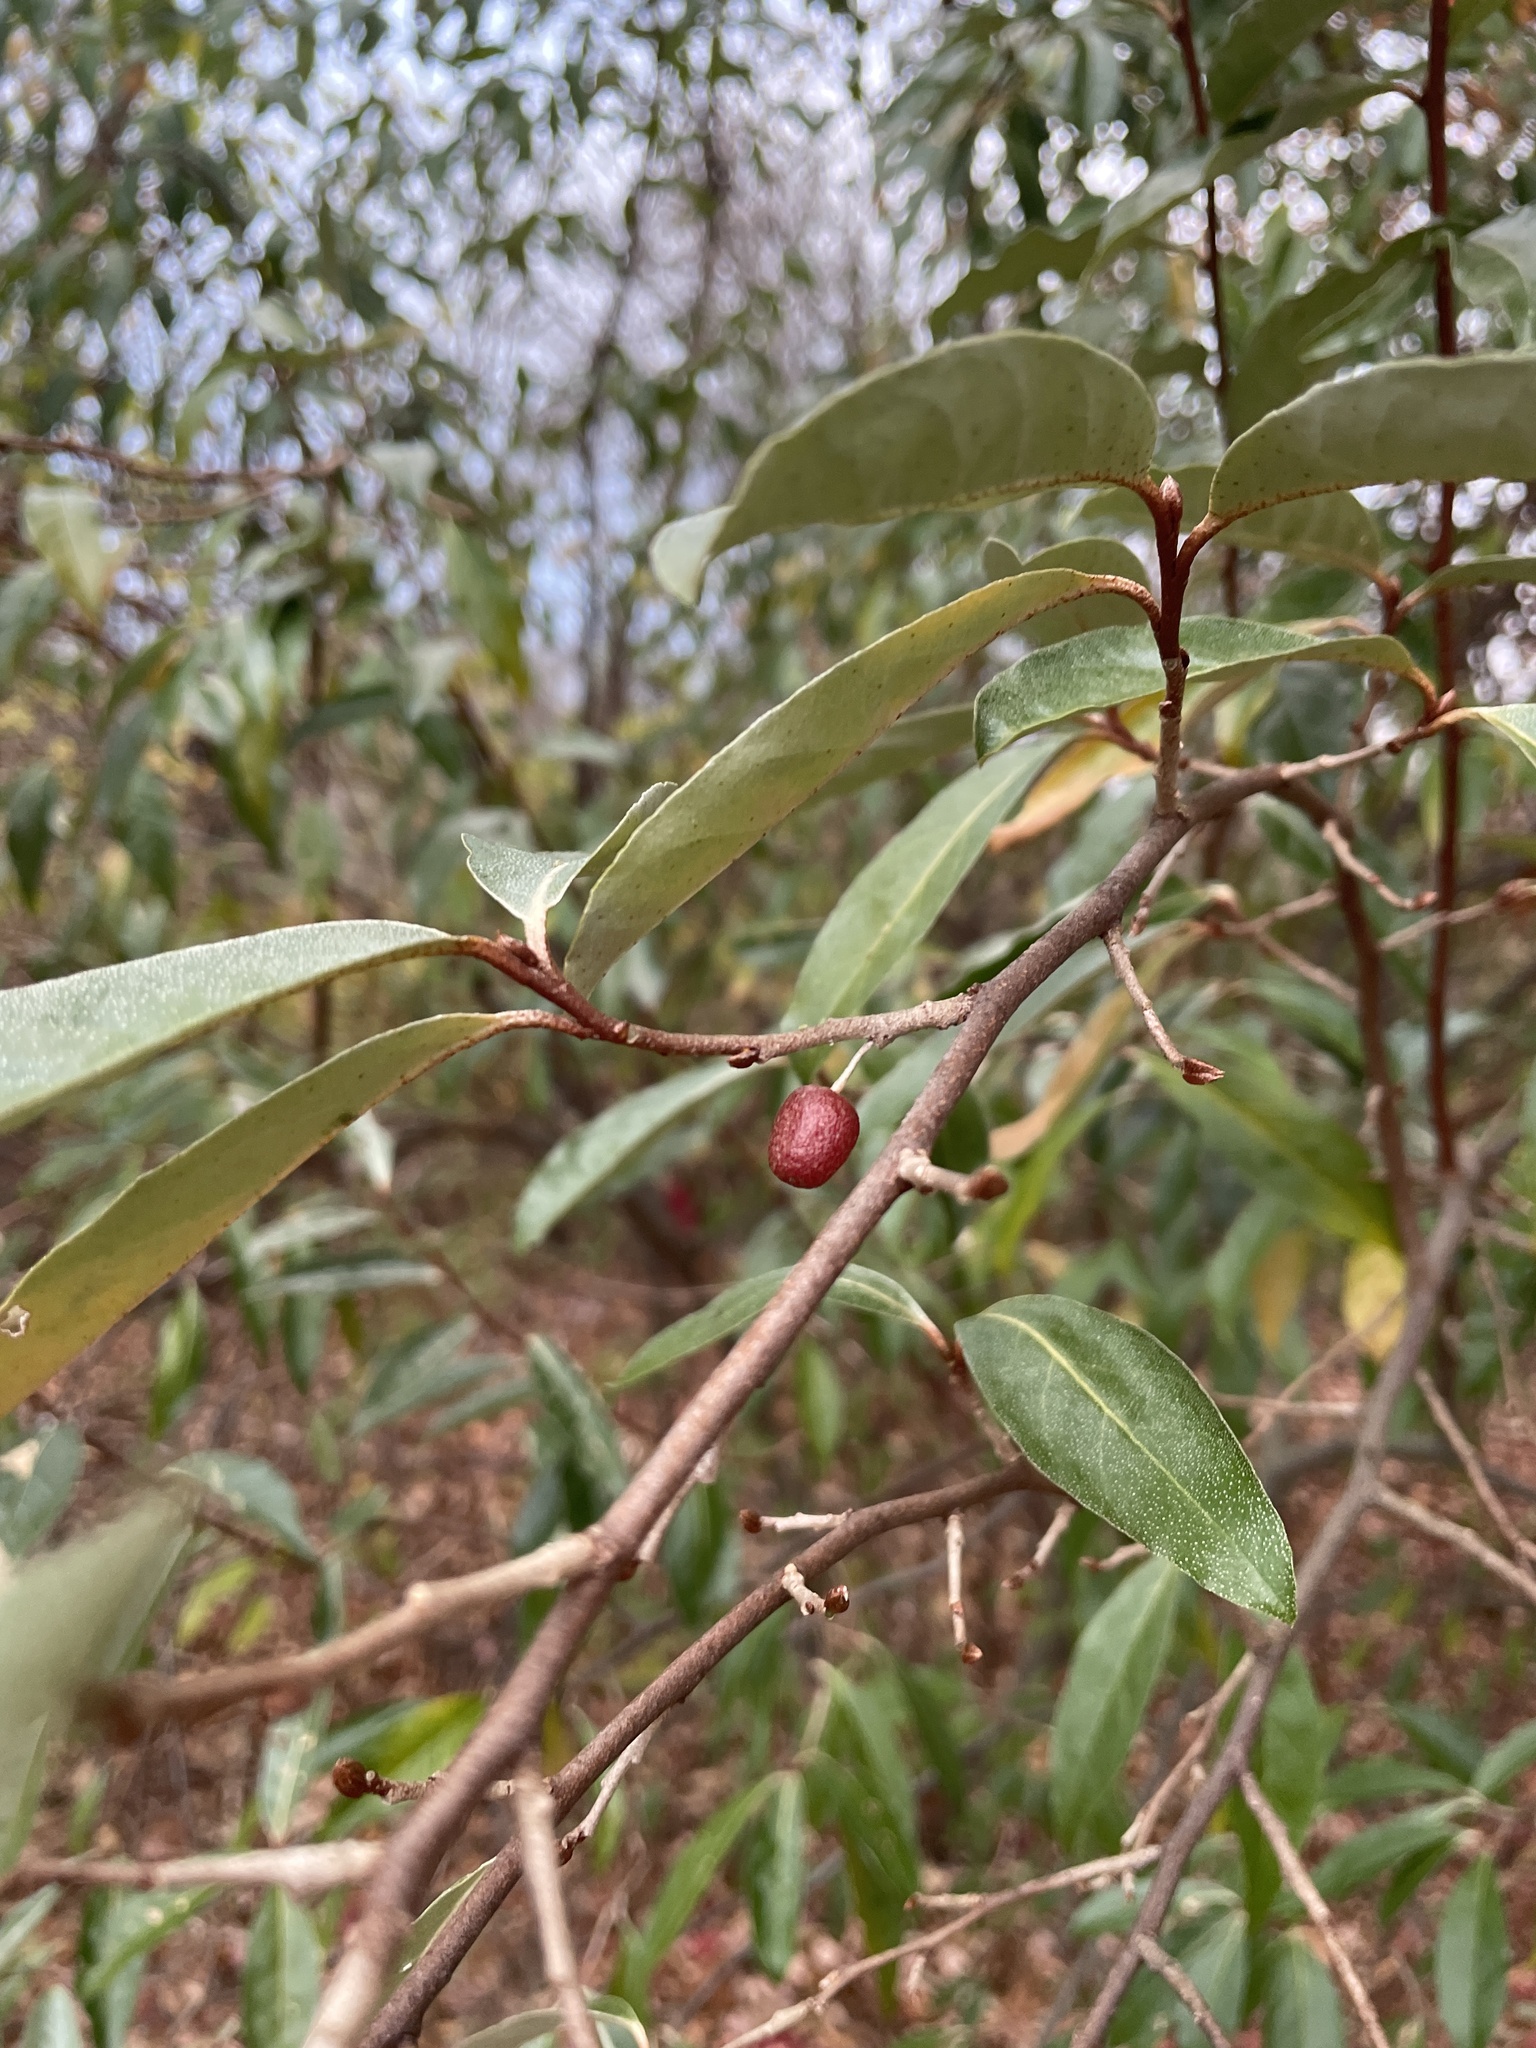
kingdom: Plantae
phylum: Tracheophyta
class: Magnoliopsida
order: Rosales
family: Elaeagnaceae
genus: Elaeagnus
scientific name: Elaeagnus umbellata
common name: Autumn olive
